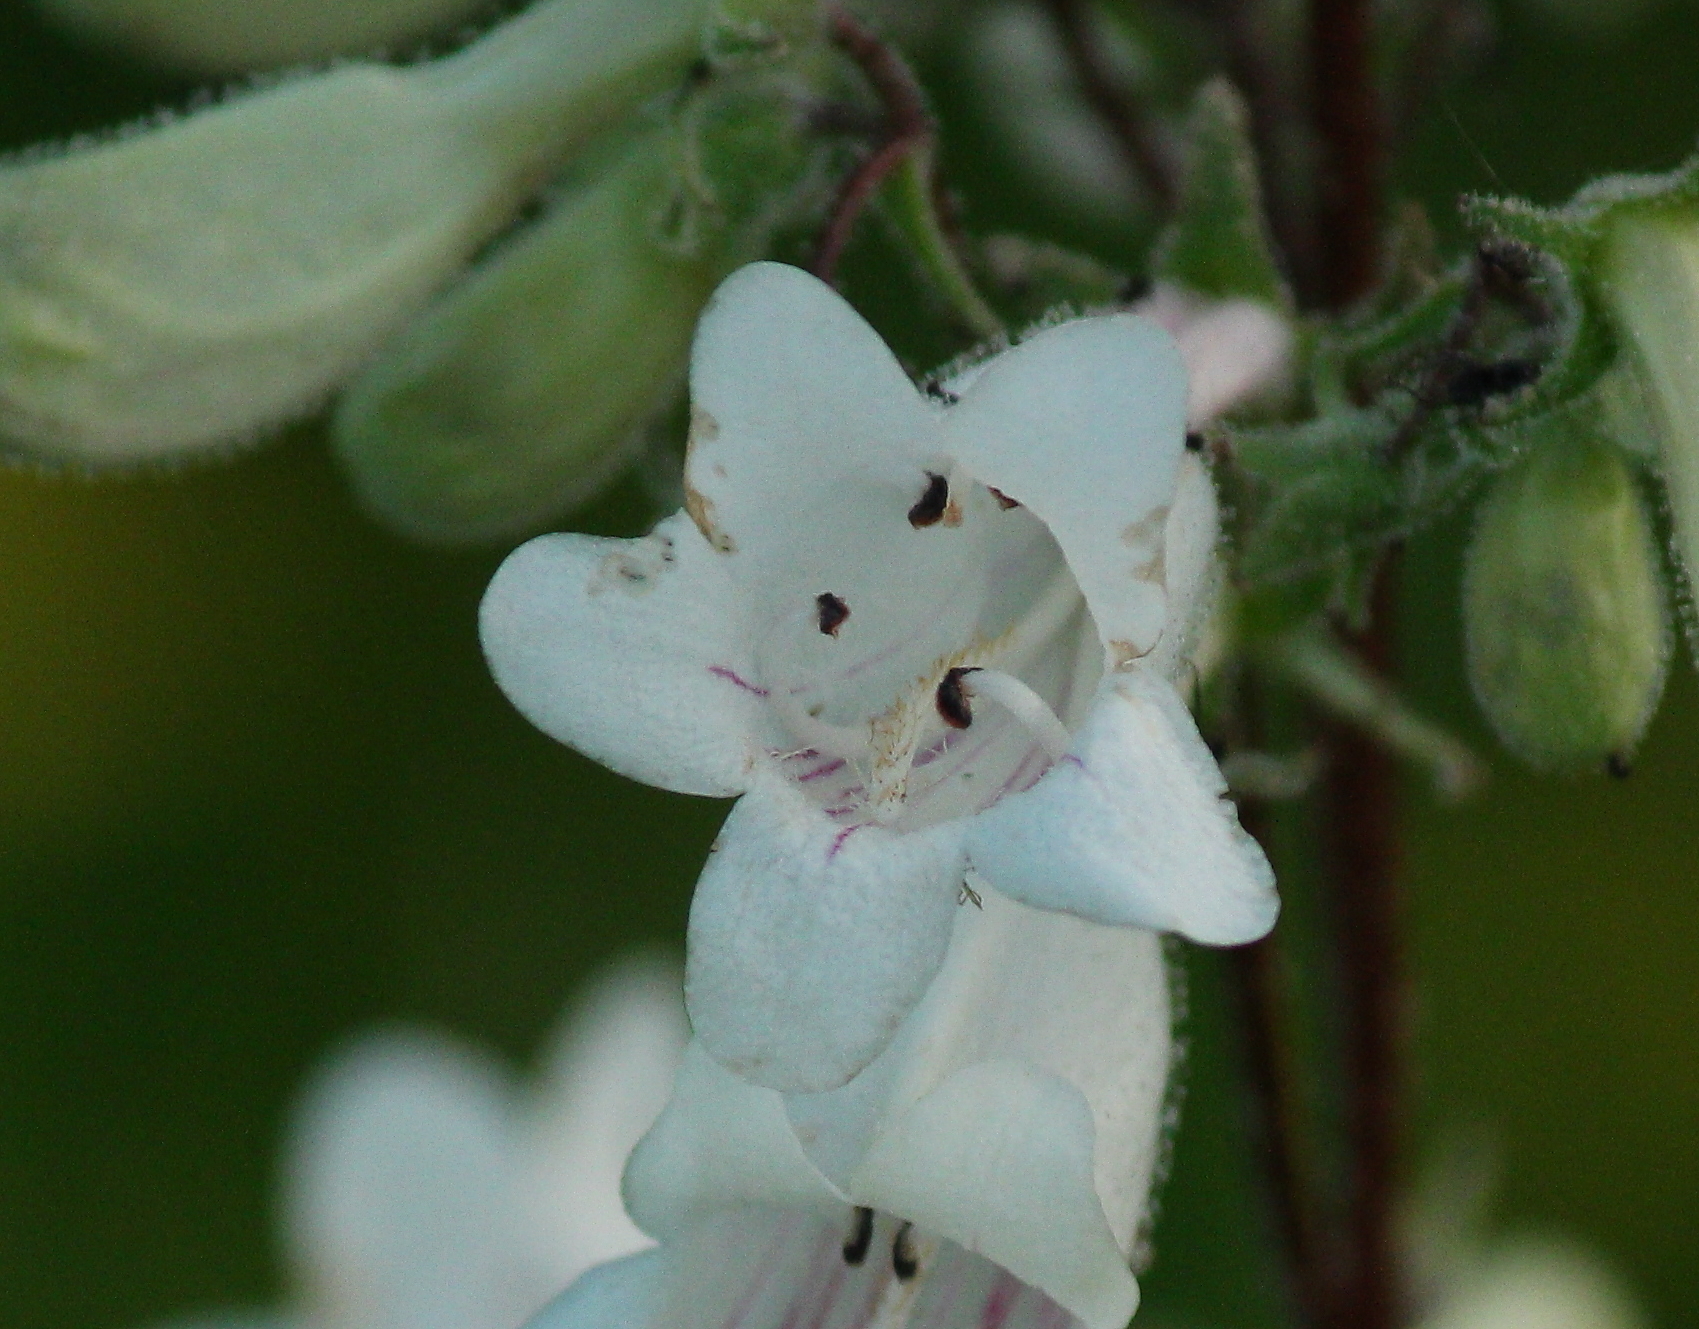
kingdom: Plantae
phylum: Tracheophyta
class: Magnoliopsida
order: Lamiales
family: Plantaginaceae
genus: Penstemon
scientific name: Penstemon digitalis
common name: Foxglove beardtongue
